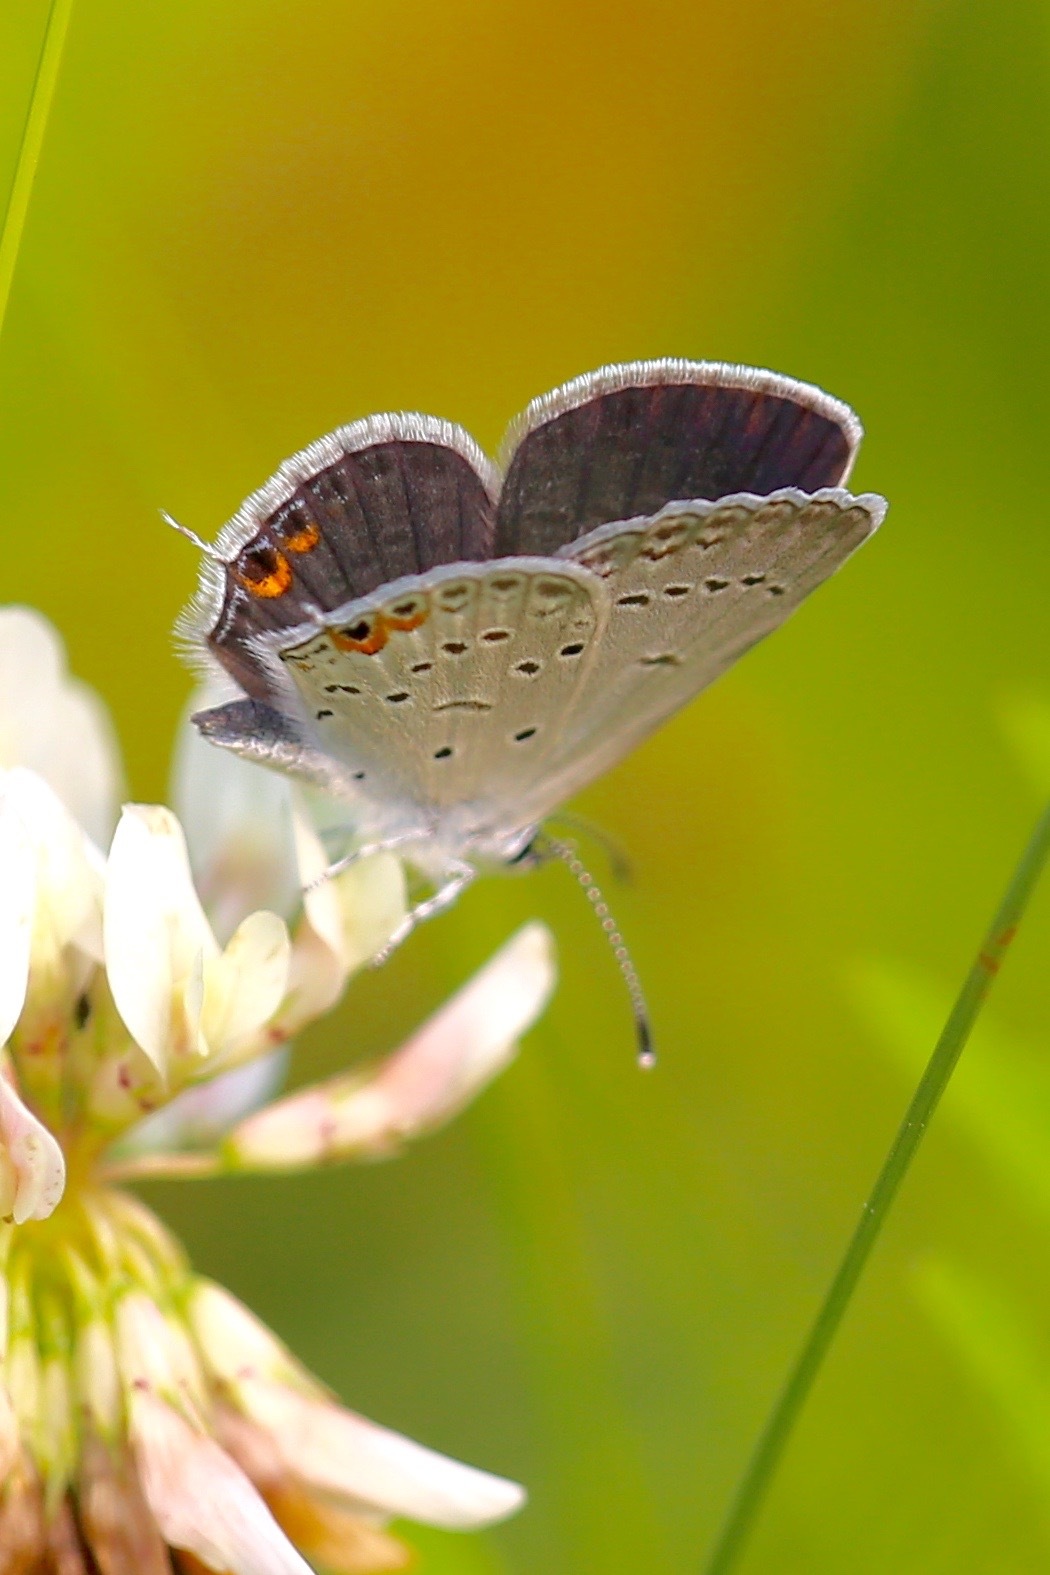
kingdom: Animalia
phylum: Arthropoda
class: Insecta
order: Lepidoptera
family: Lycaenidae
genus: Elkalyce
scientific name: Elkalyce comyntas
